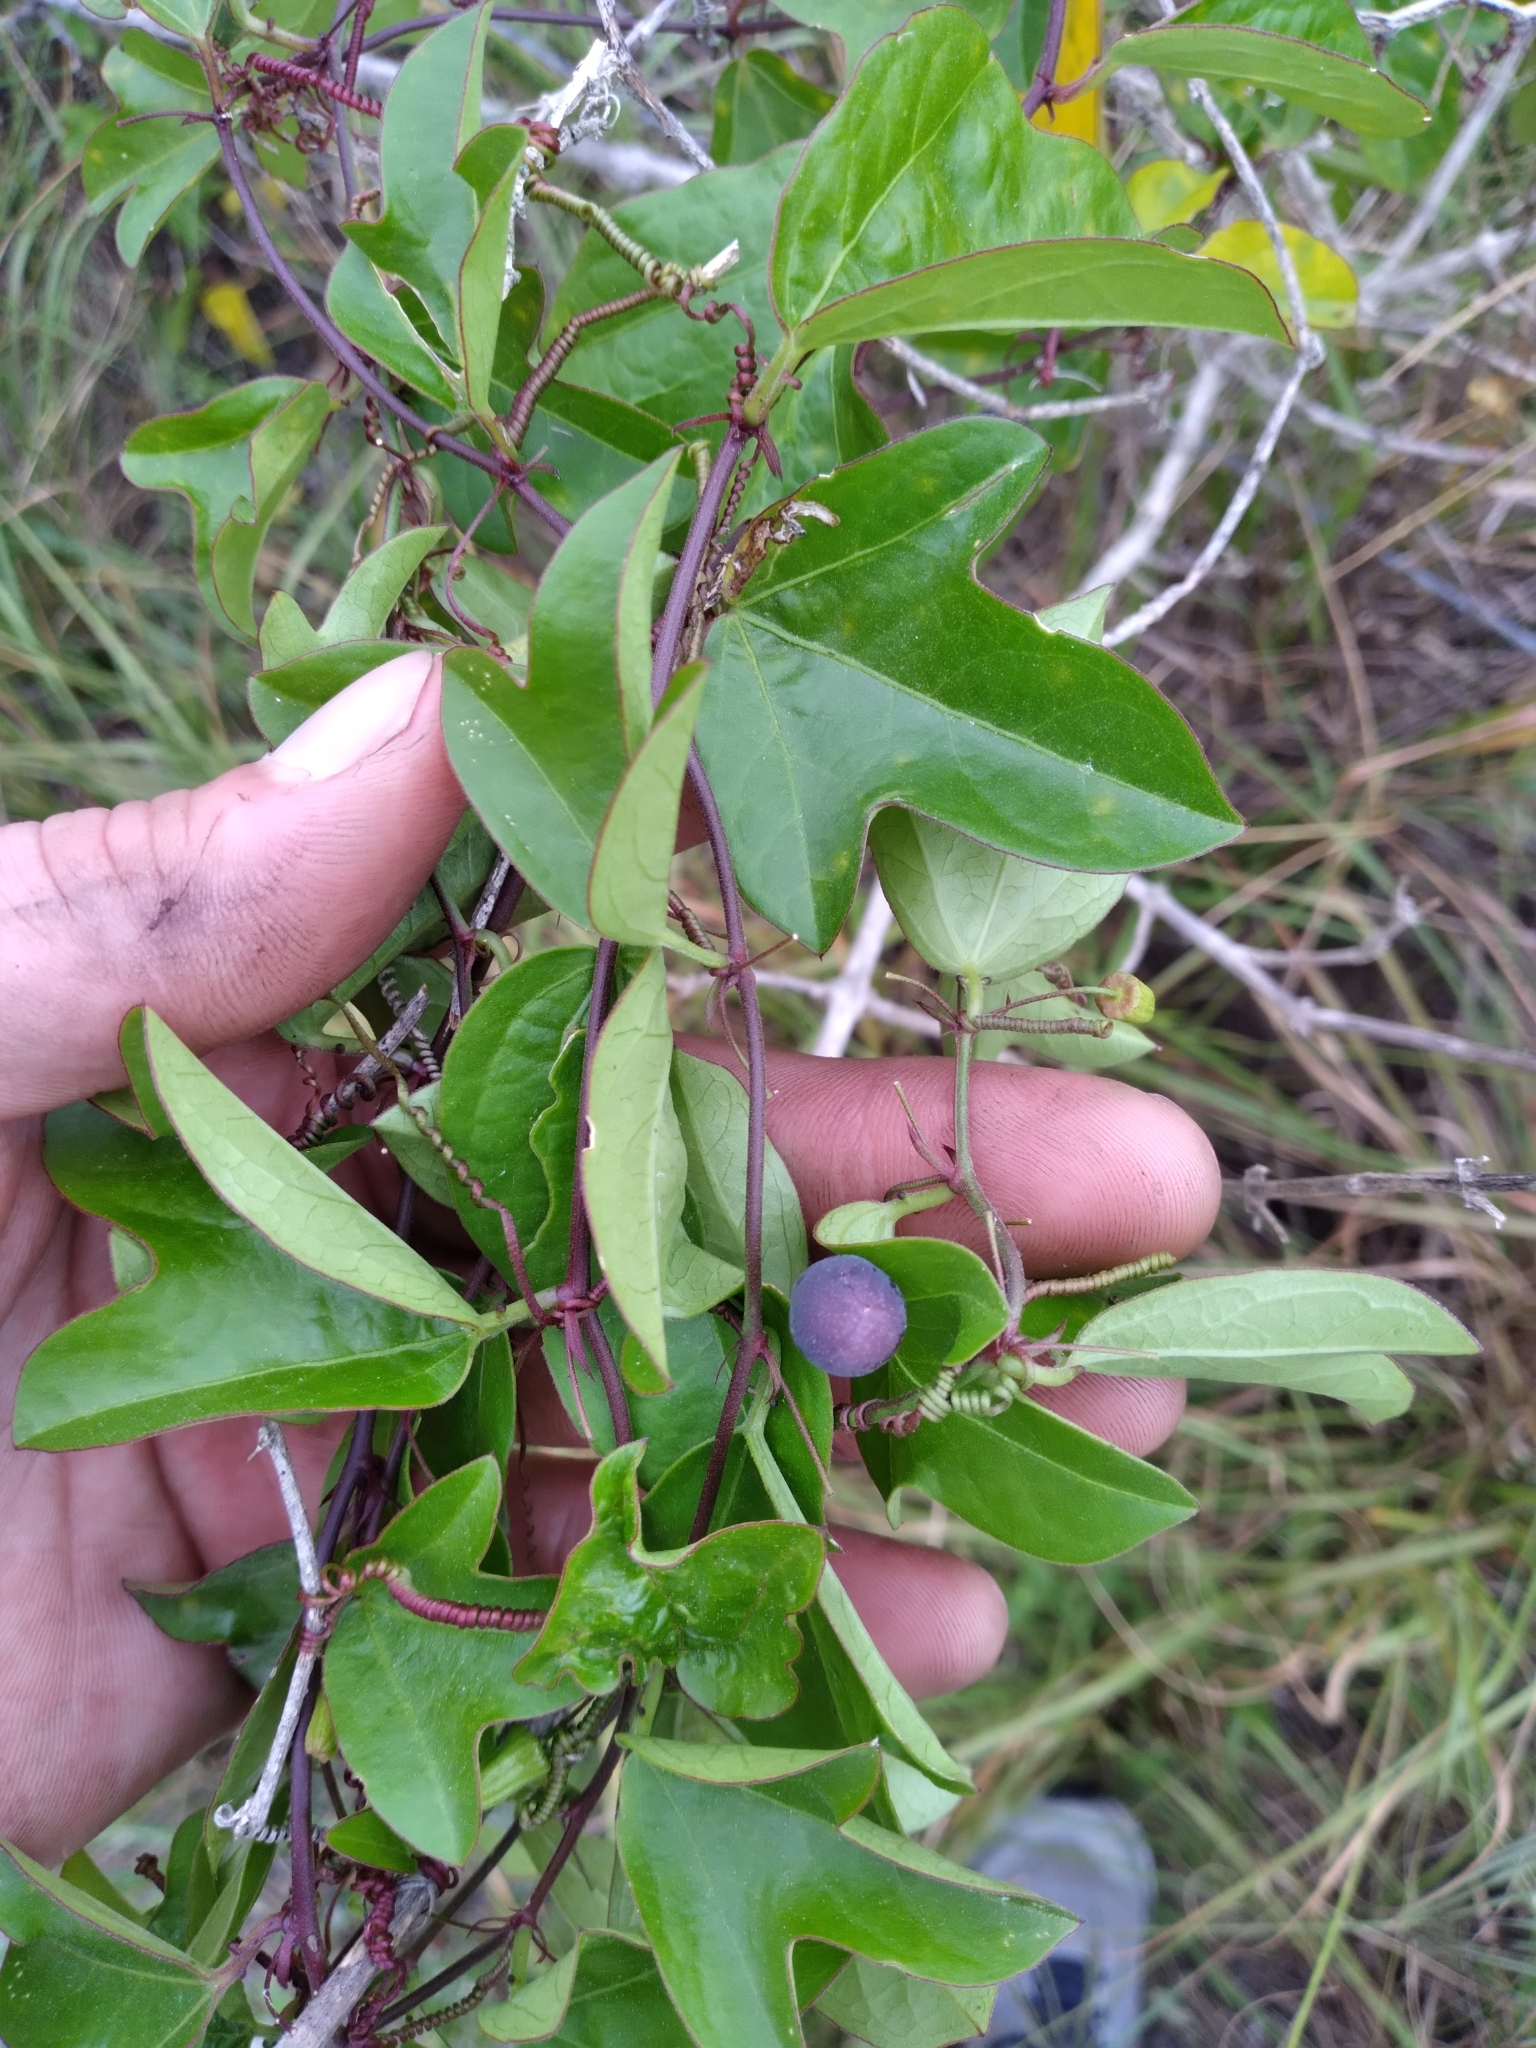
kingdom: Plantae
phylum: Tracheophyta
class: Magnoliopsida
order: Malpighiales
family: Passifloraceae
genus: Passiflora
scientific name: Passiflora pallida
